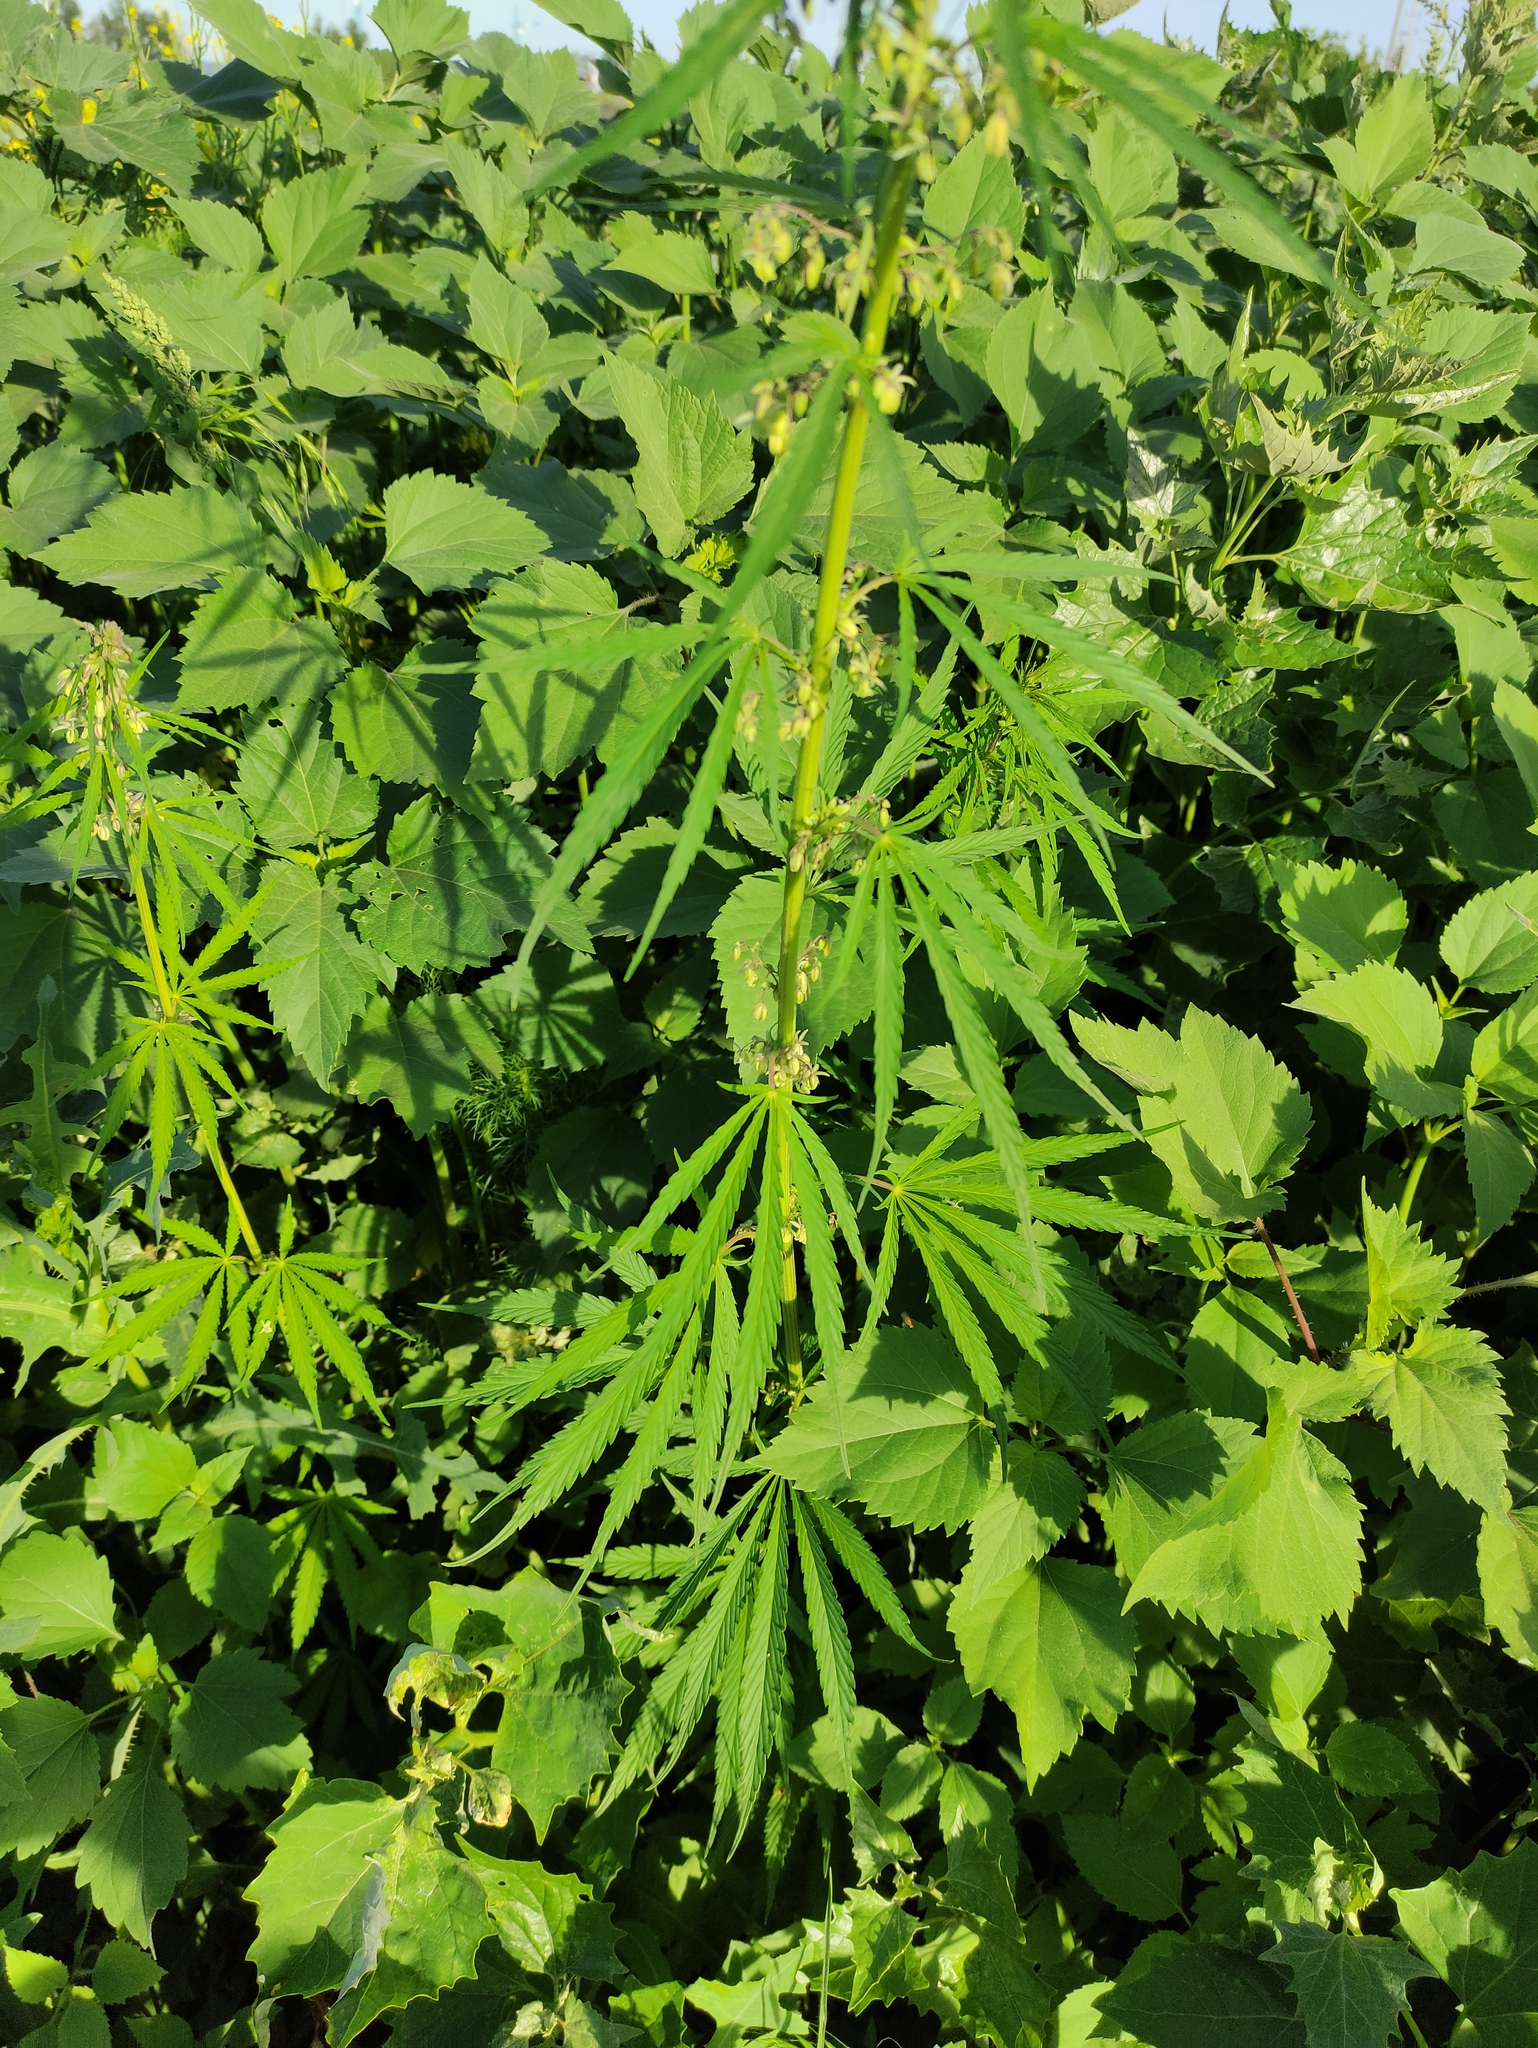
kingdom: Plantae
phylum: Tracheophyta
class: Magnoliopsida
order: Rosales
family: Cannabaceae
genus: Cannabis
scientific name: Cannabis sativa
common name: Hemp
